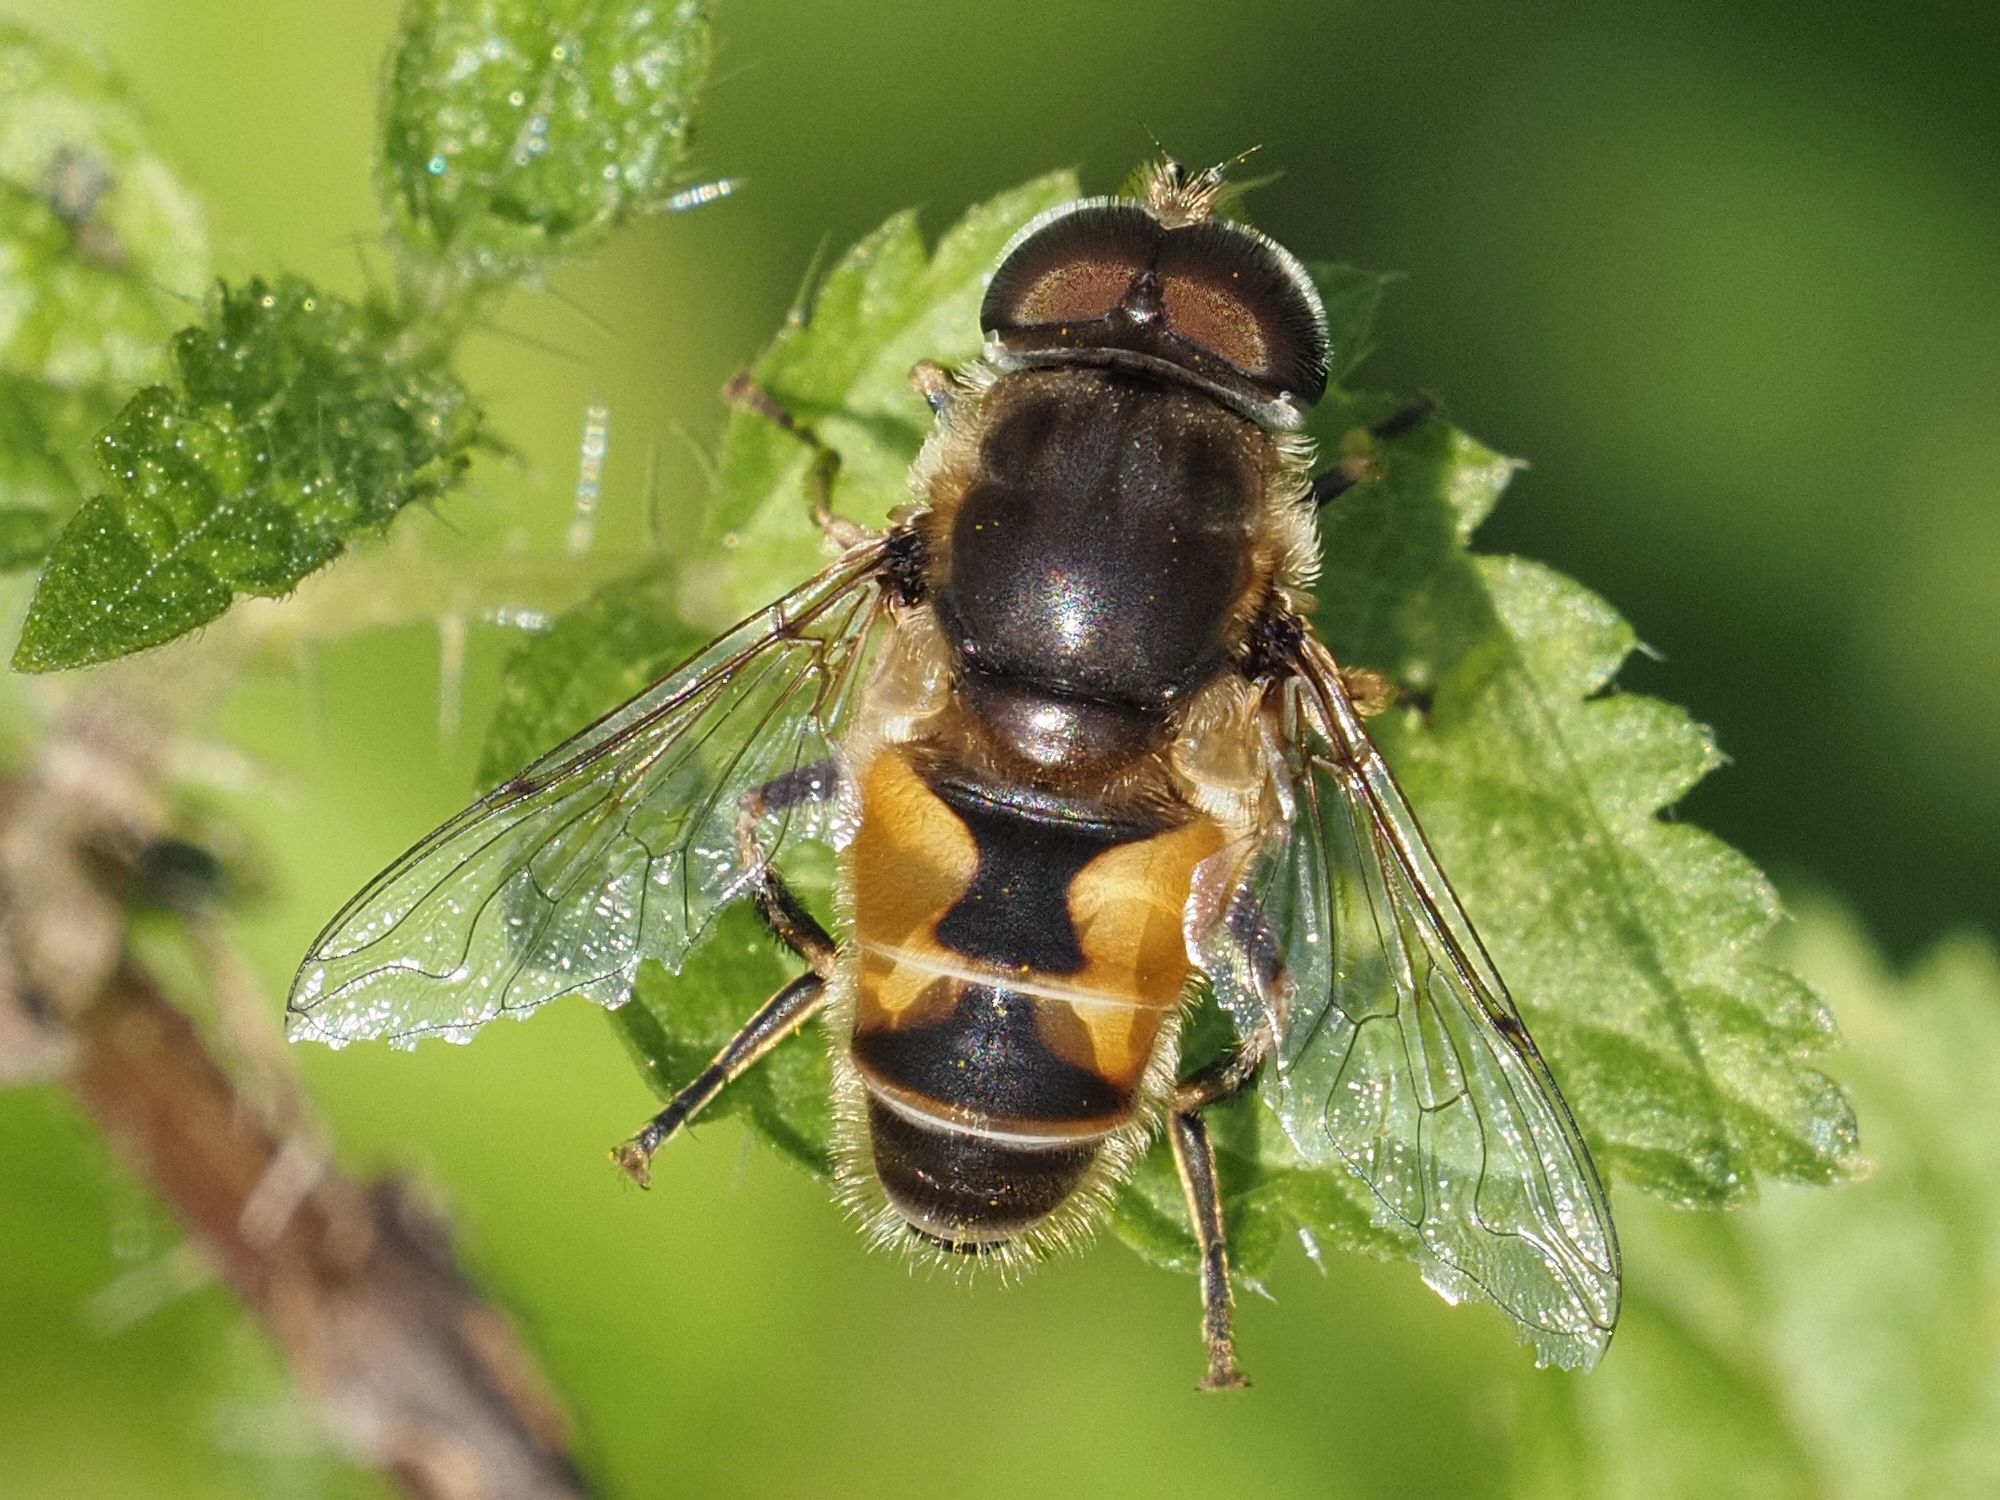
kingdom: Animalia
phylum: Arthropoda
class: Insecta
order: Diptera
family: Syrphidae
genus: Eristalis
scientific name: Eristalis arbustorum
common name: Hover fly
